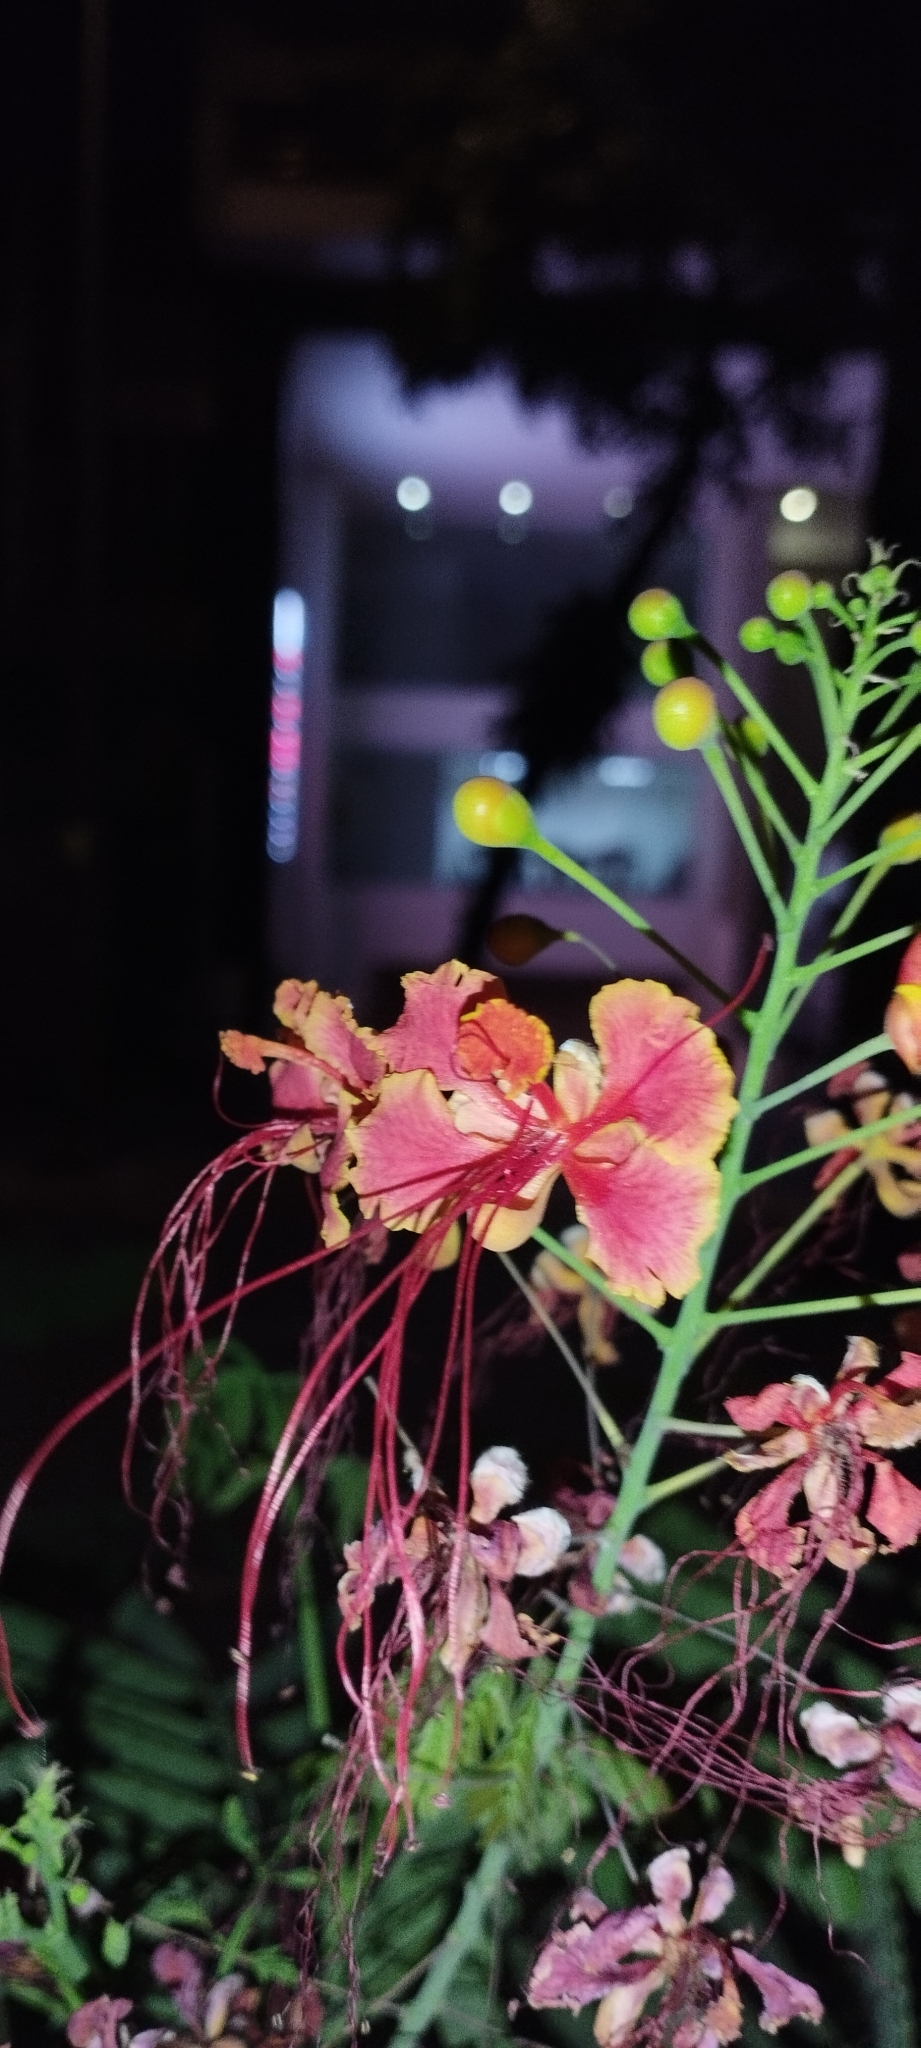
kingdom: Plantae
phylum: Tracheophyta
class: Magnoliopsida
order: Fabales
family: Fabaceae
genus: Caesalpinia
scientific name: Caesalpinia pulcherrima
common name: Pride-of-barbados
